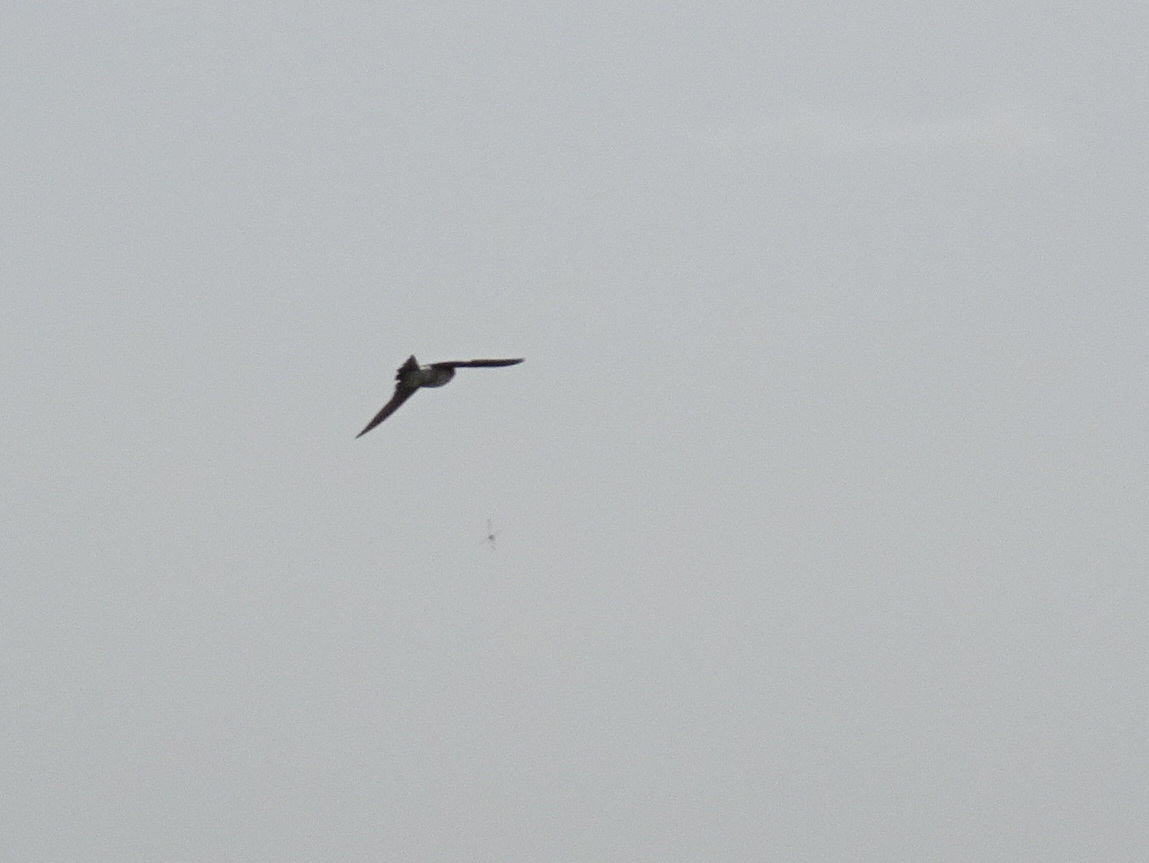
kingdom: Animalia
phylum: Chordata
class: Aves
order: Passeriformes
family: Hirundinidae
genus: Tachycineta
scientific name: Tachycineta bicolor
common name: Tree swallow
